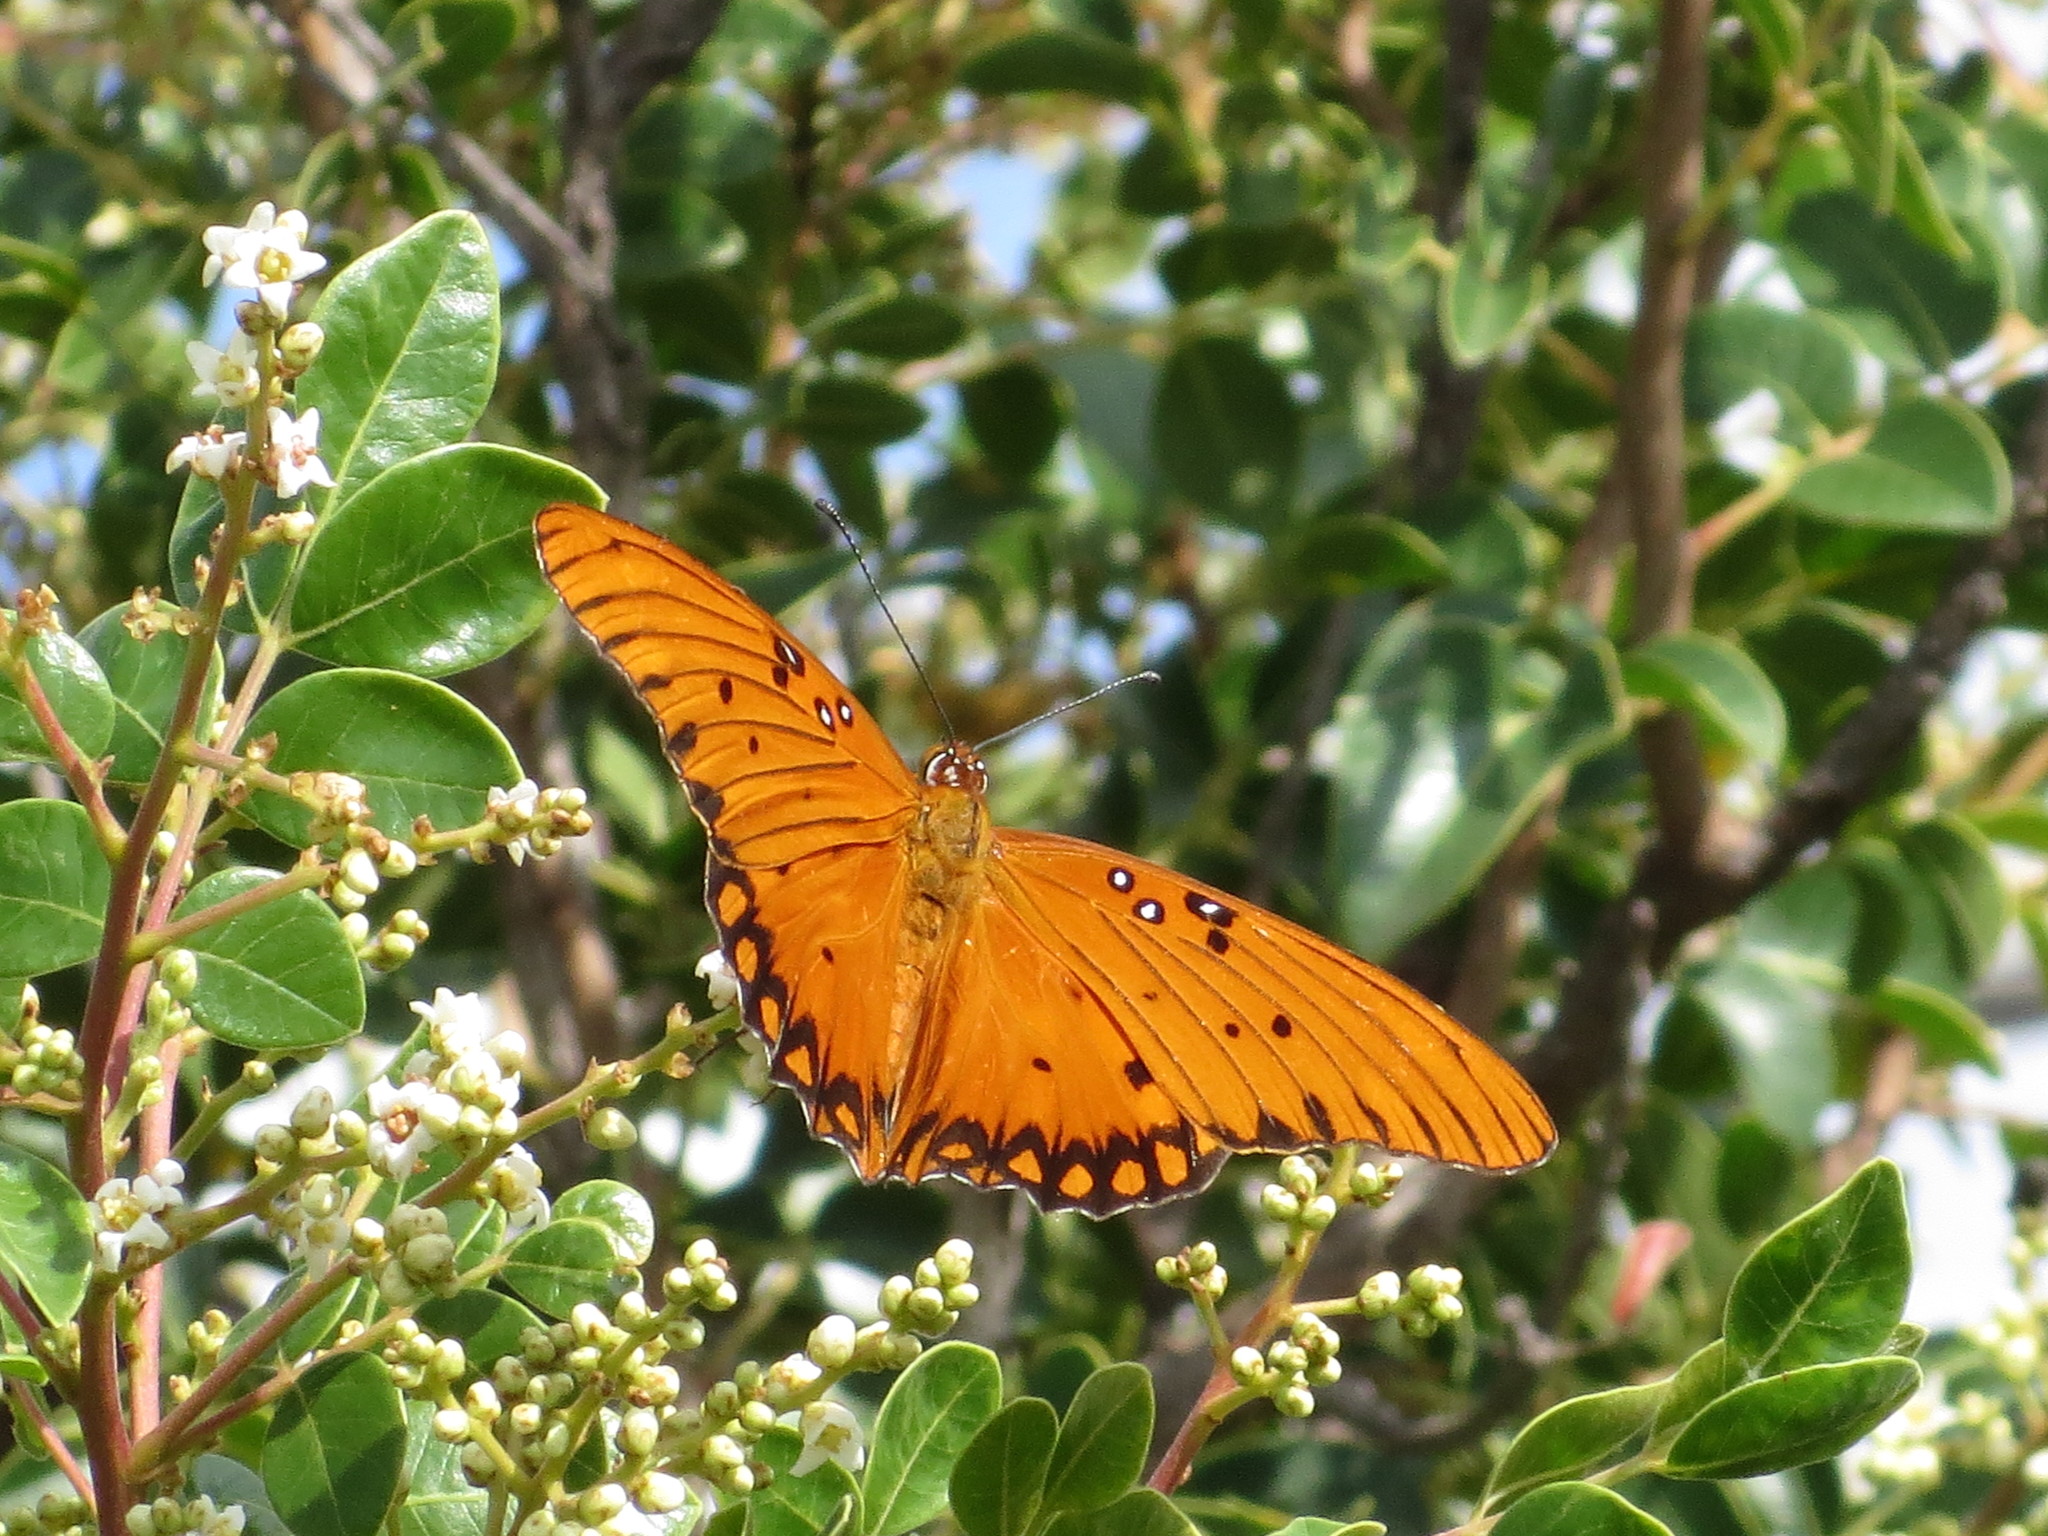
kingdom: Animalia
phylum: Arthropoda
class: Insecta
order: Lepidoptera
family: Nymphalidae
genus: Dione
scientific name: Dione vanillae
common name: Gulf fritillary
